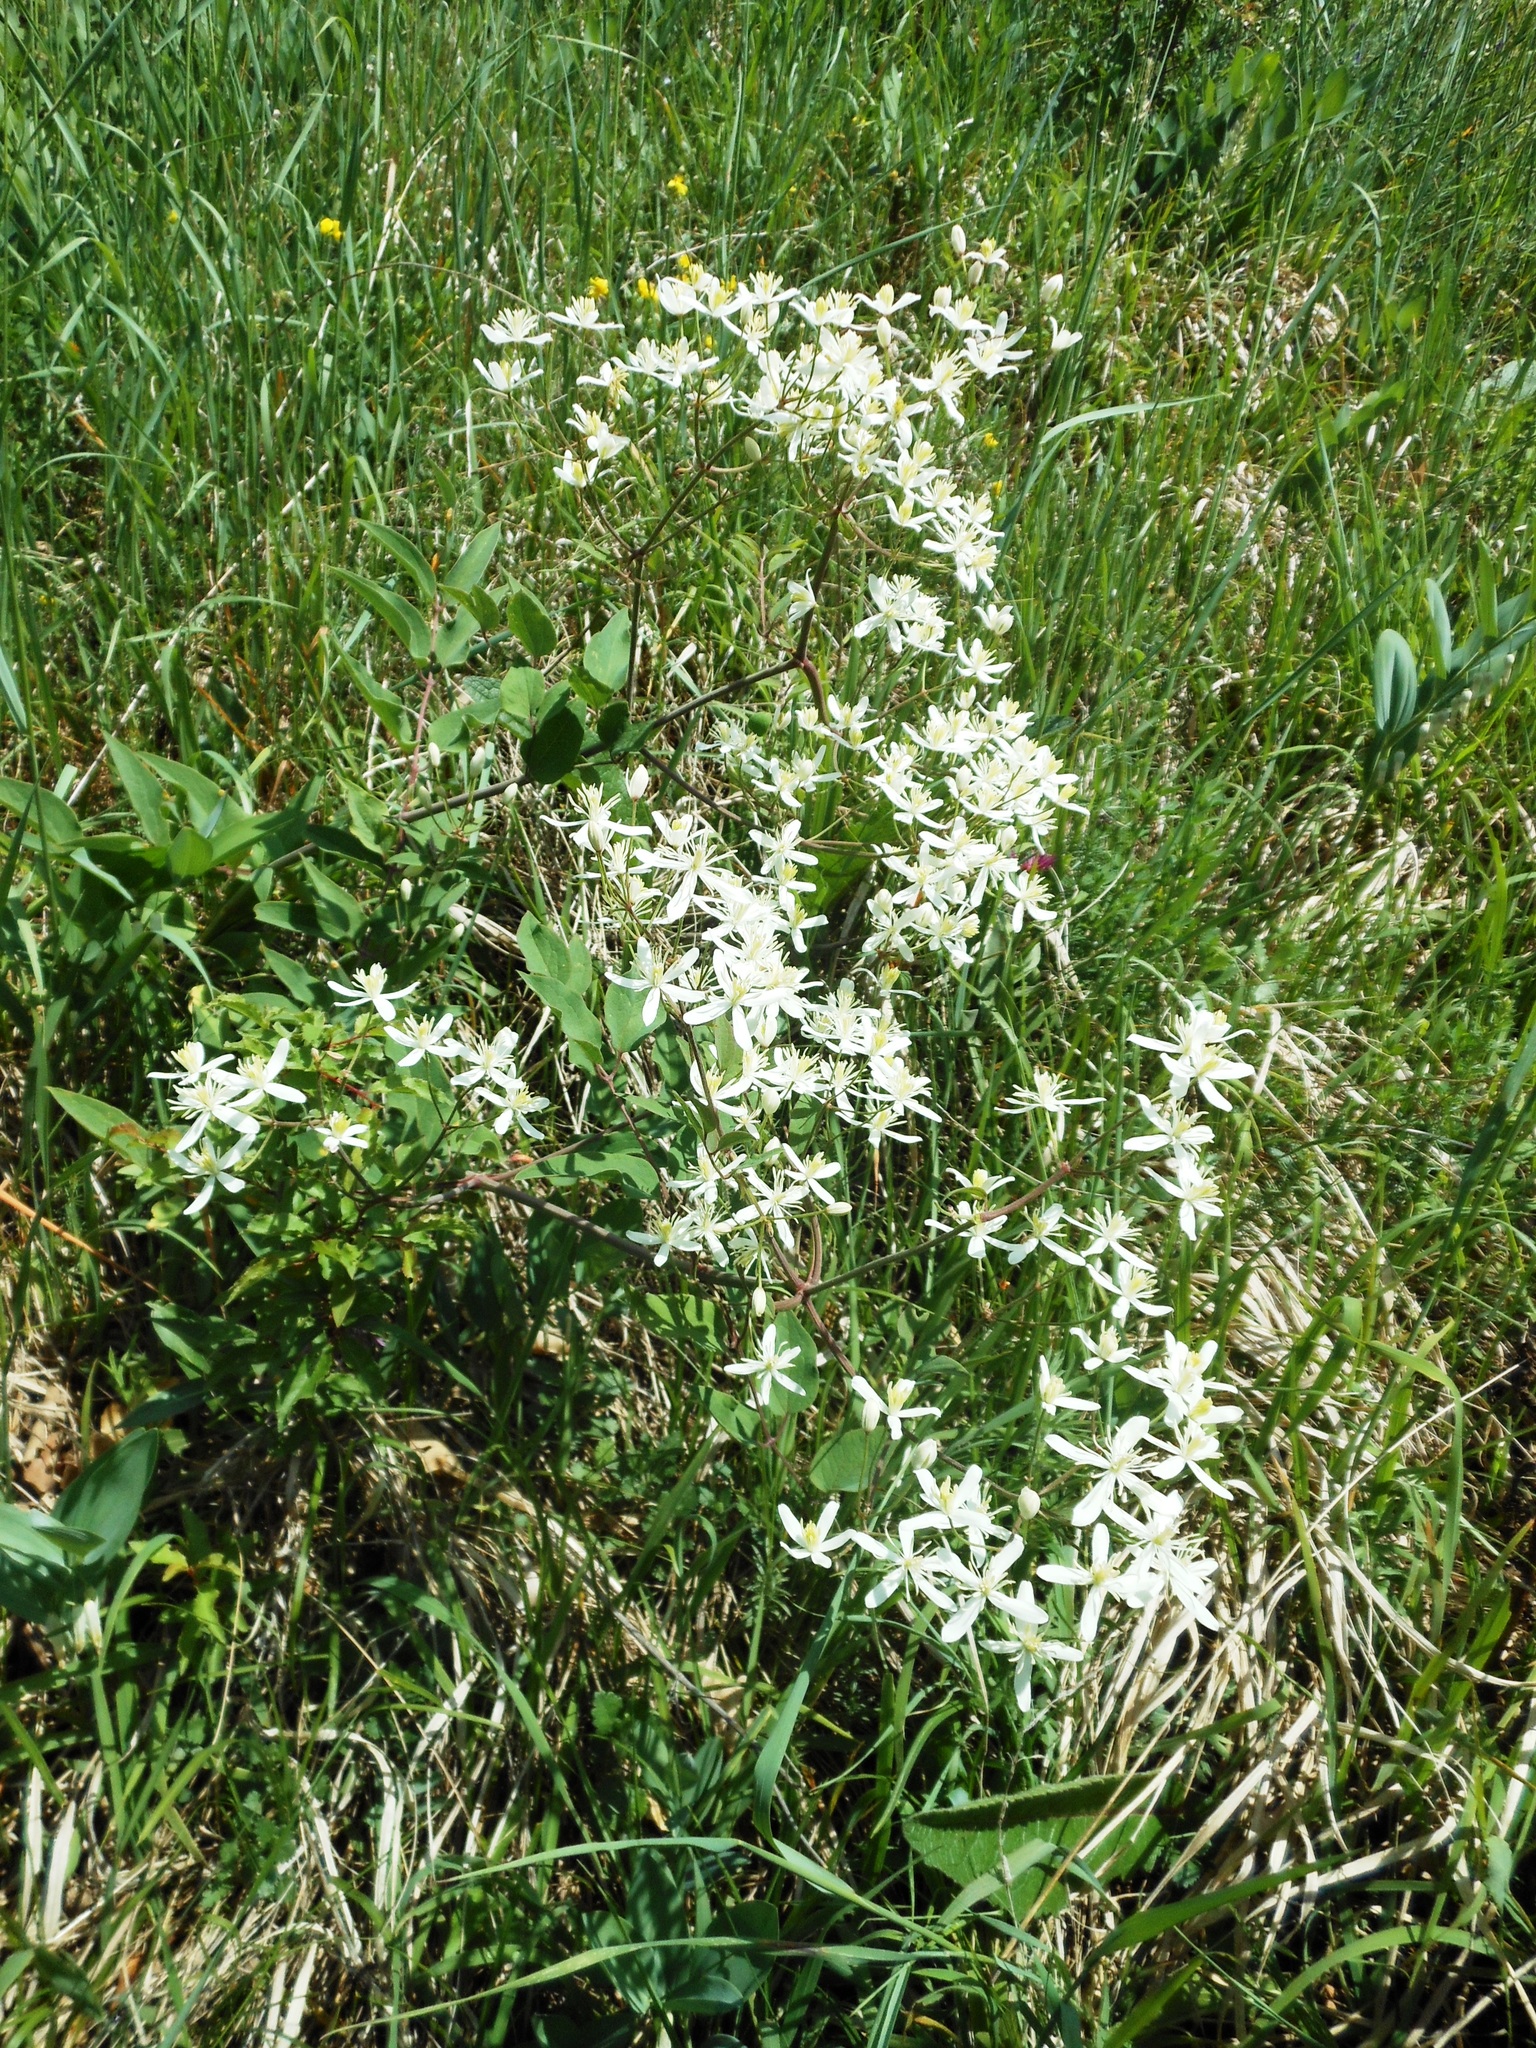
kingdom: Plantae
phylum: Tracheophyta
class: Magnoliopsida
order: Ranunculales
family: Ranunculaceae
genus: Clematis
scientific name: Clematis recta
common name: Ground clematis
